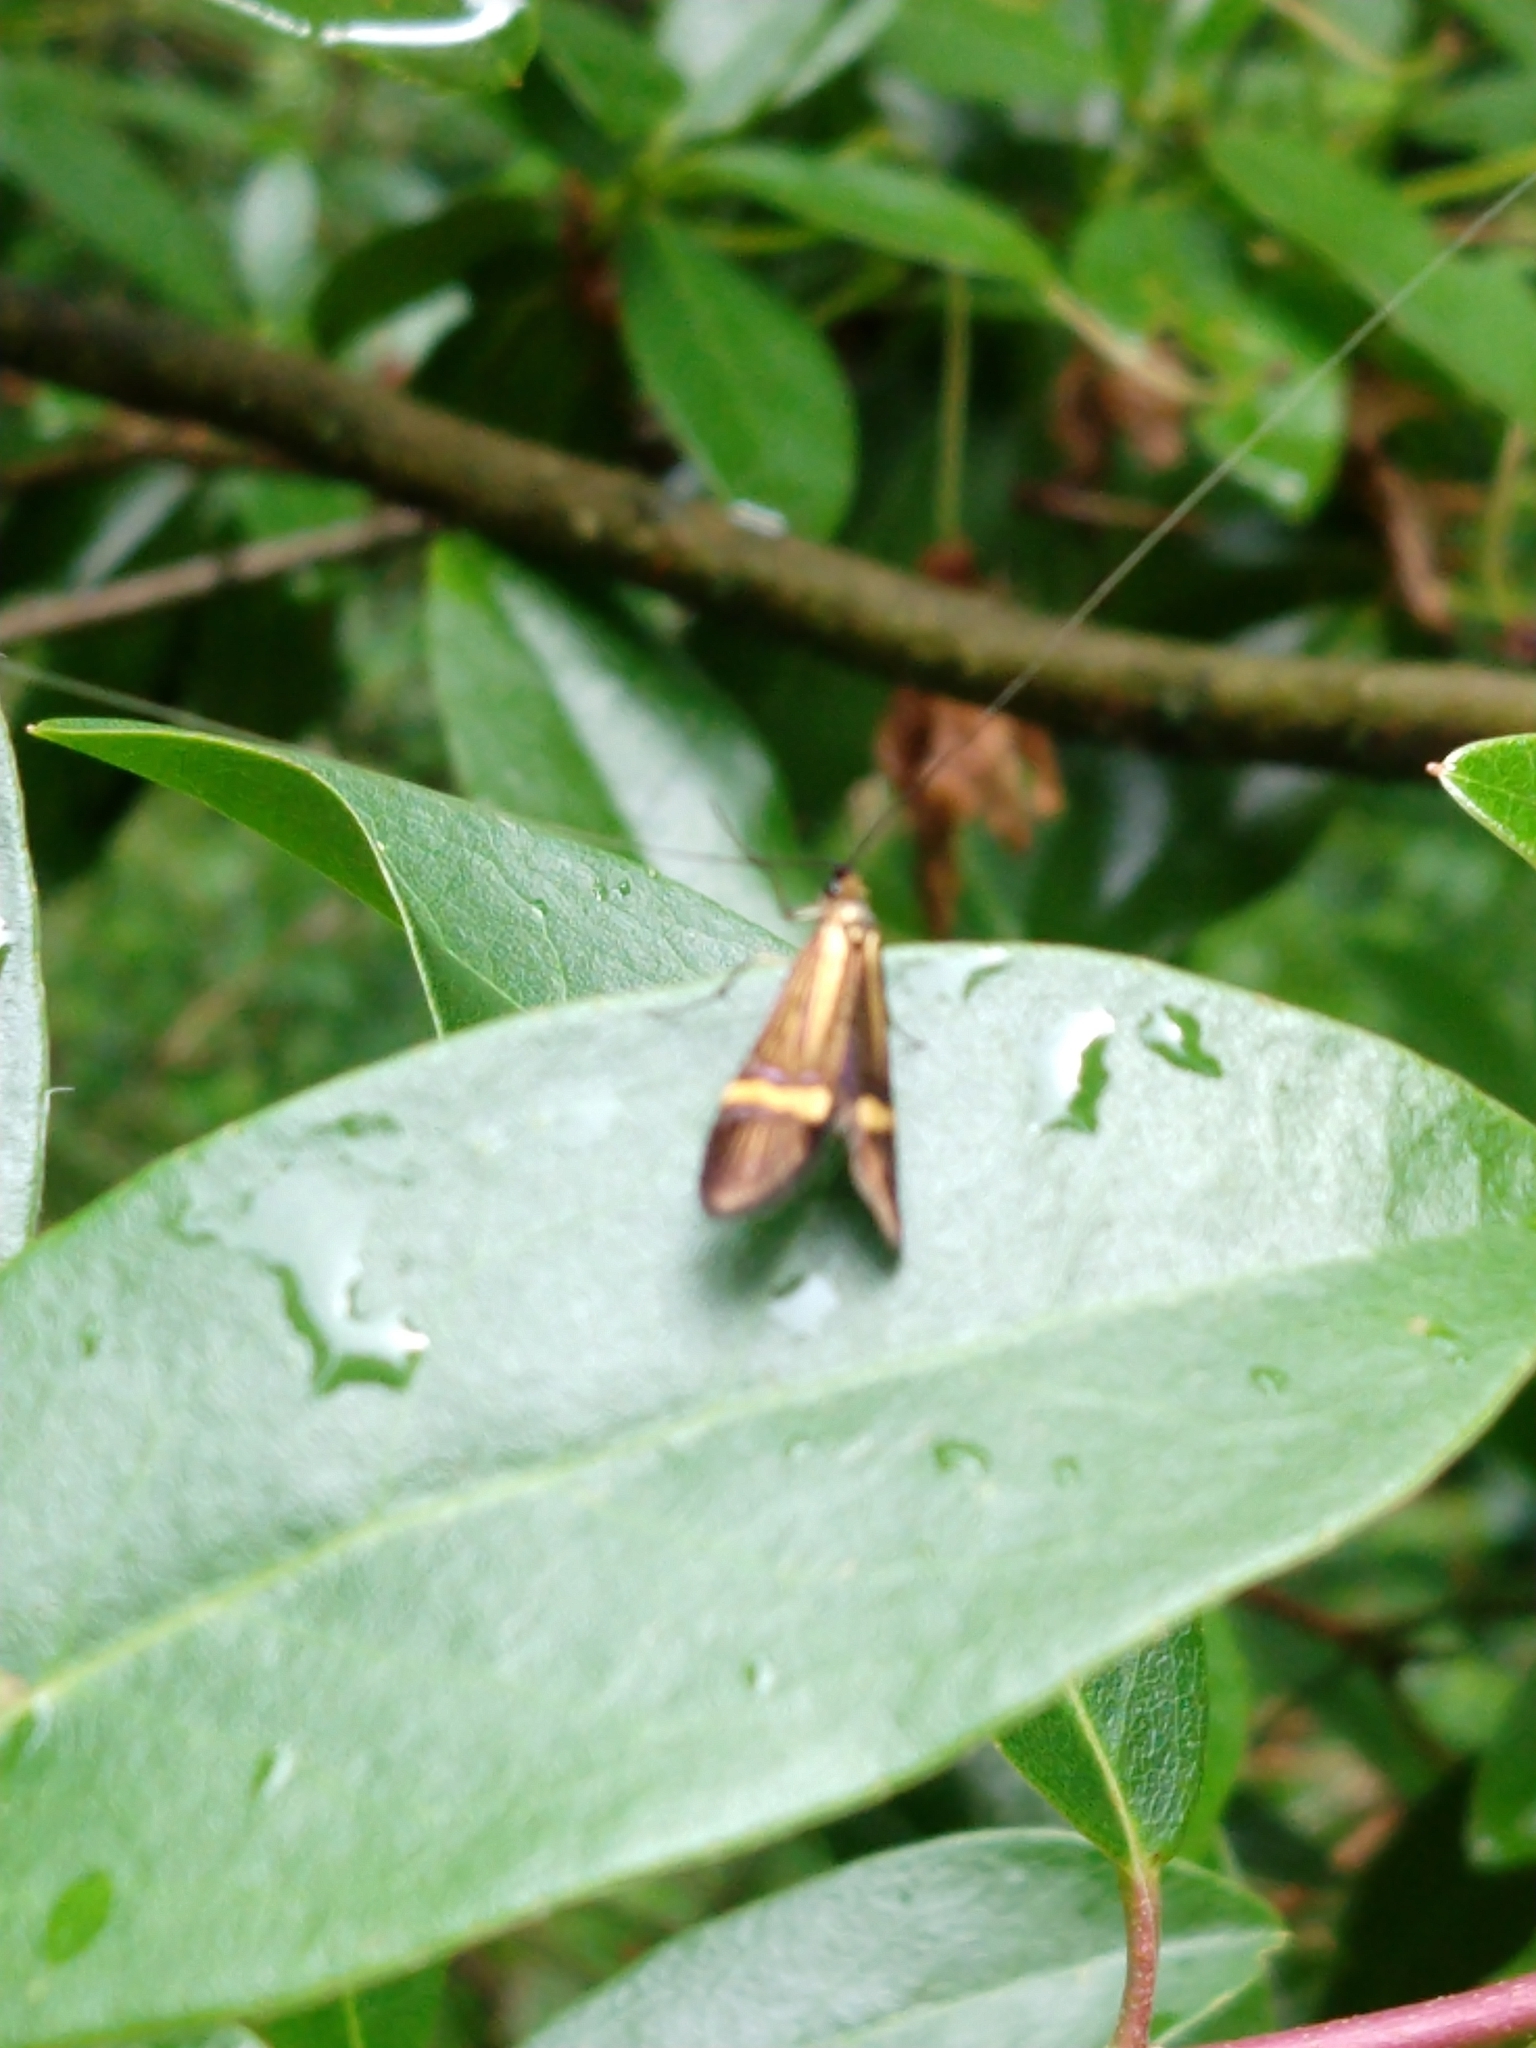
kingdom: Animalia
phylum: Arthropoda
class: Insecta
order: Lepidoptera
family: Adelidae
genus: Nemophora
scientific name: Nemophora degeerella
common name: Yellow-barred long-horn
